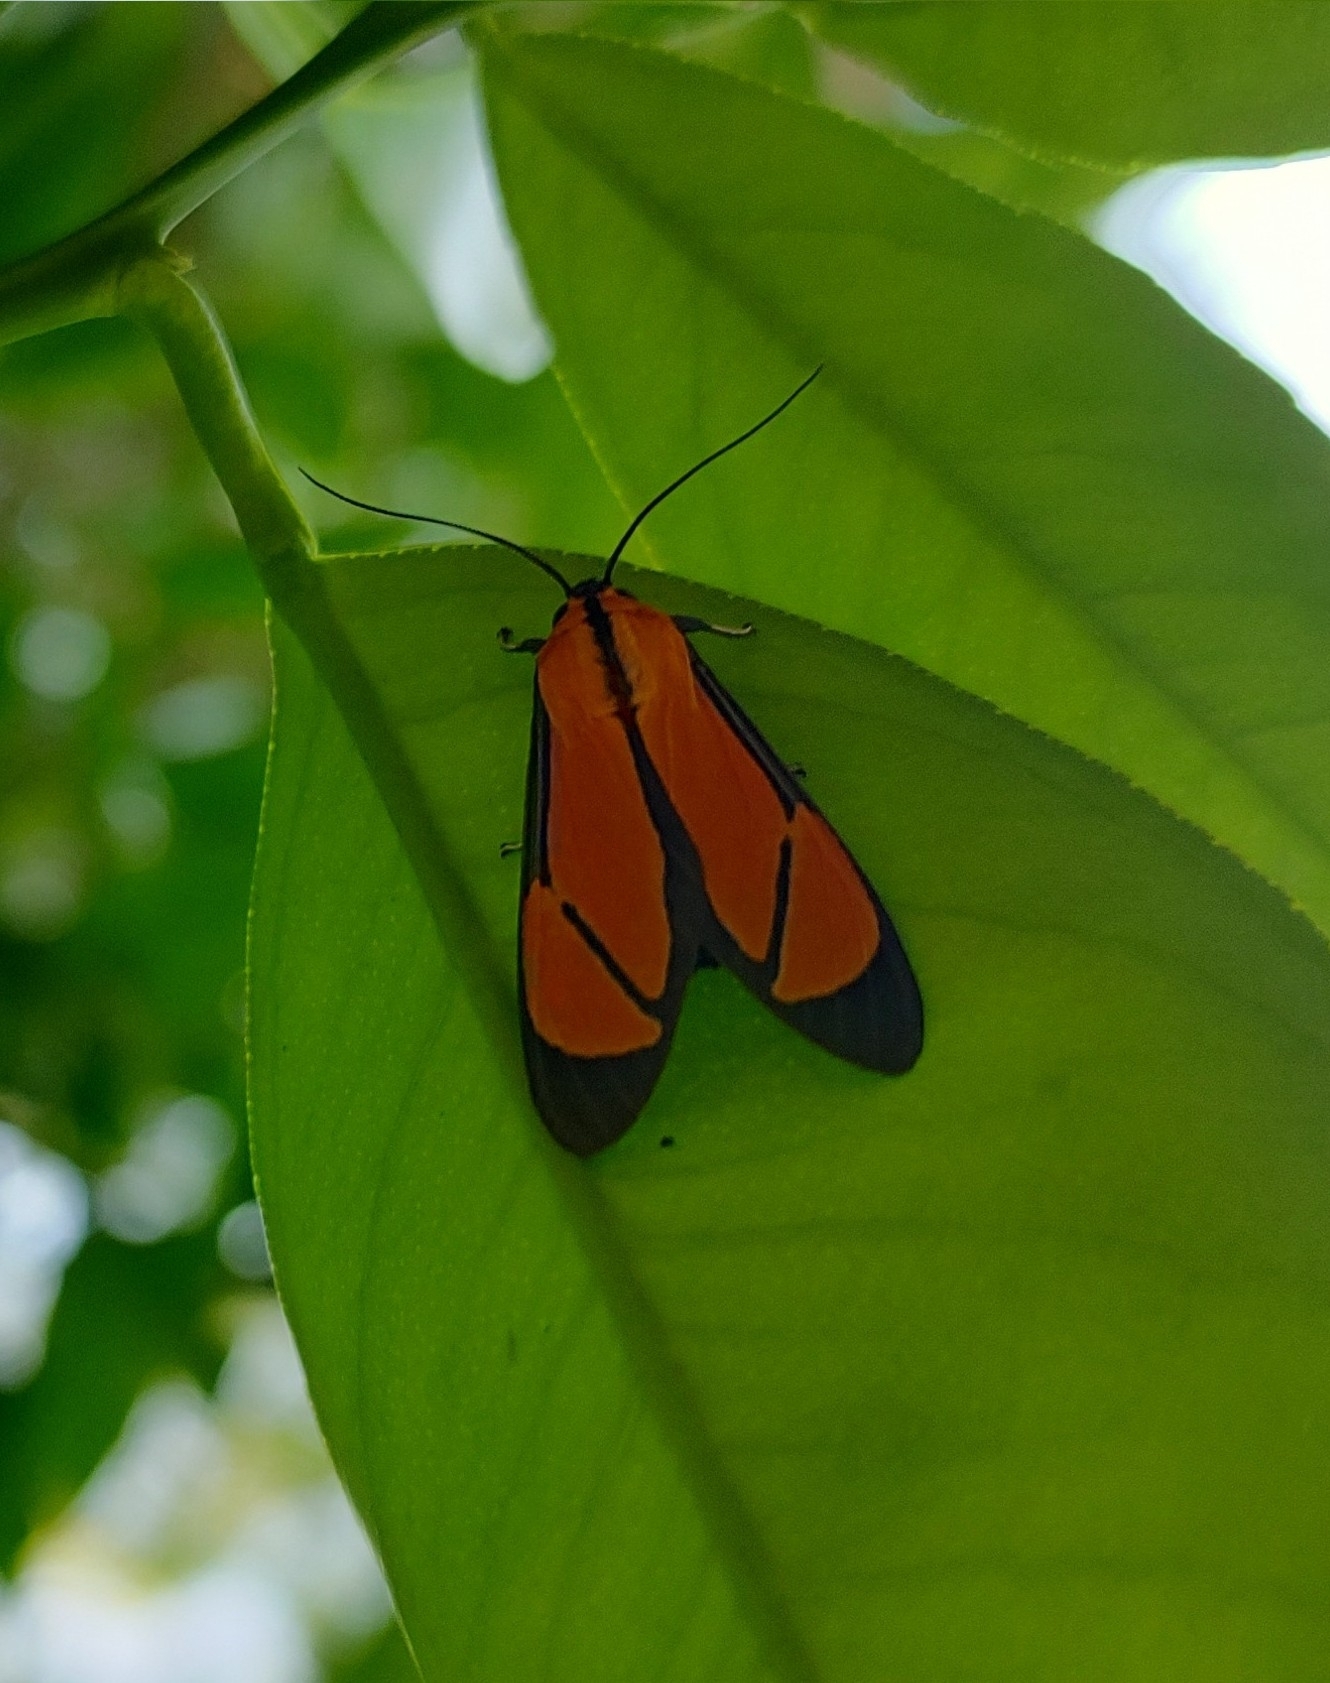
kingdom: Animalia
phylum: Arthropoda
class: Insecta
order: Lepidoptera
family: Erebidae
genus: Ormetica
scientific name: Ormetica chrysomelas
